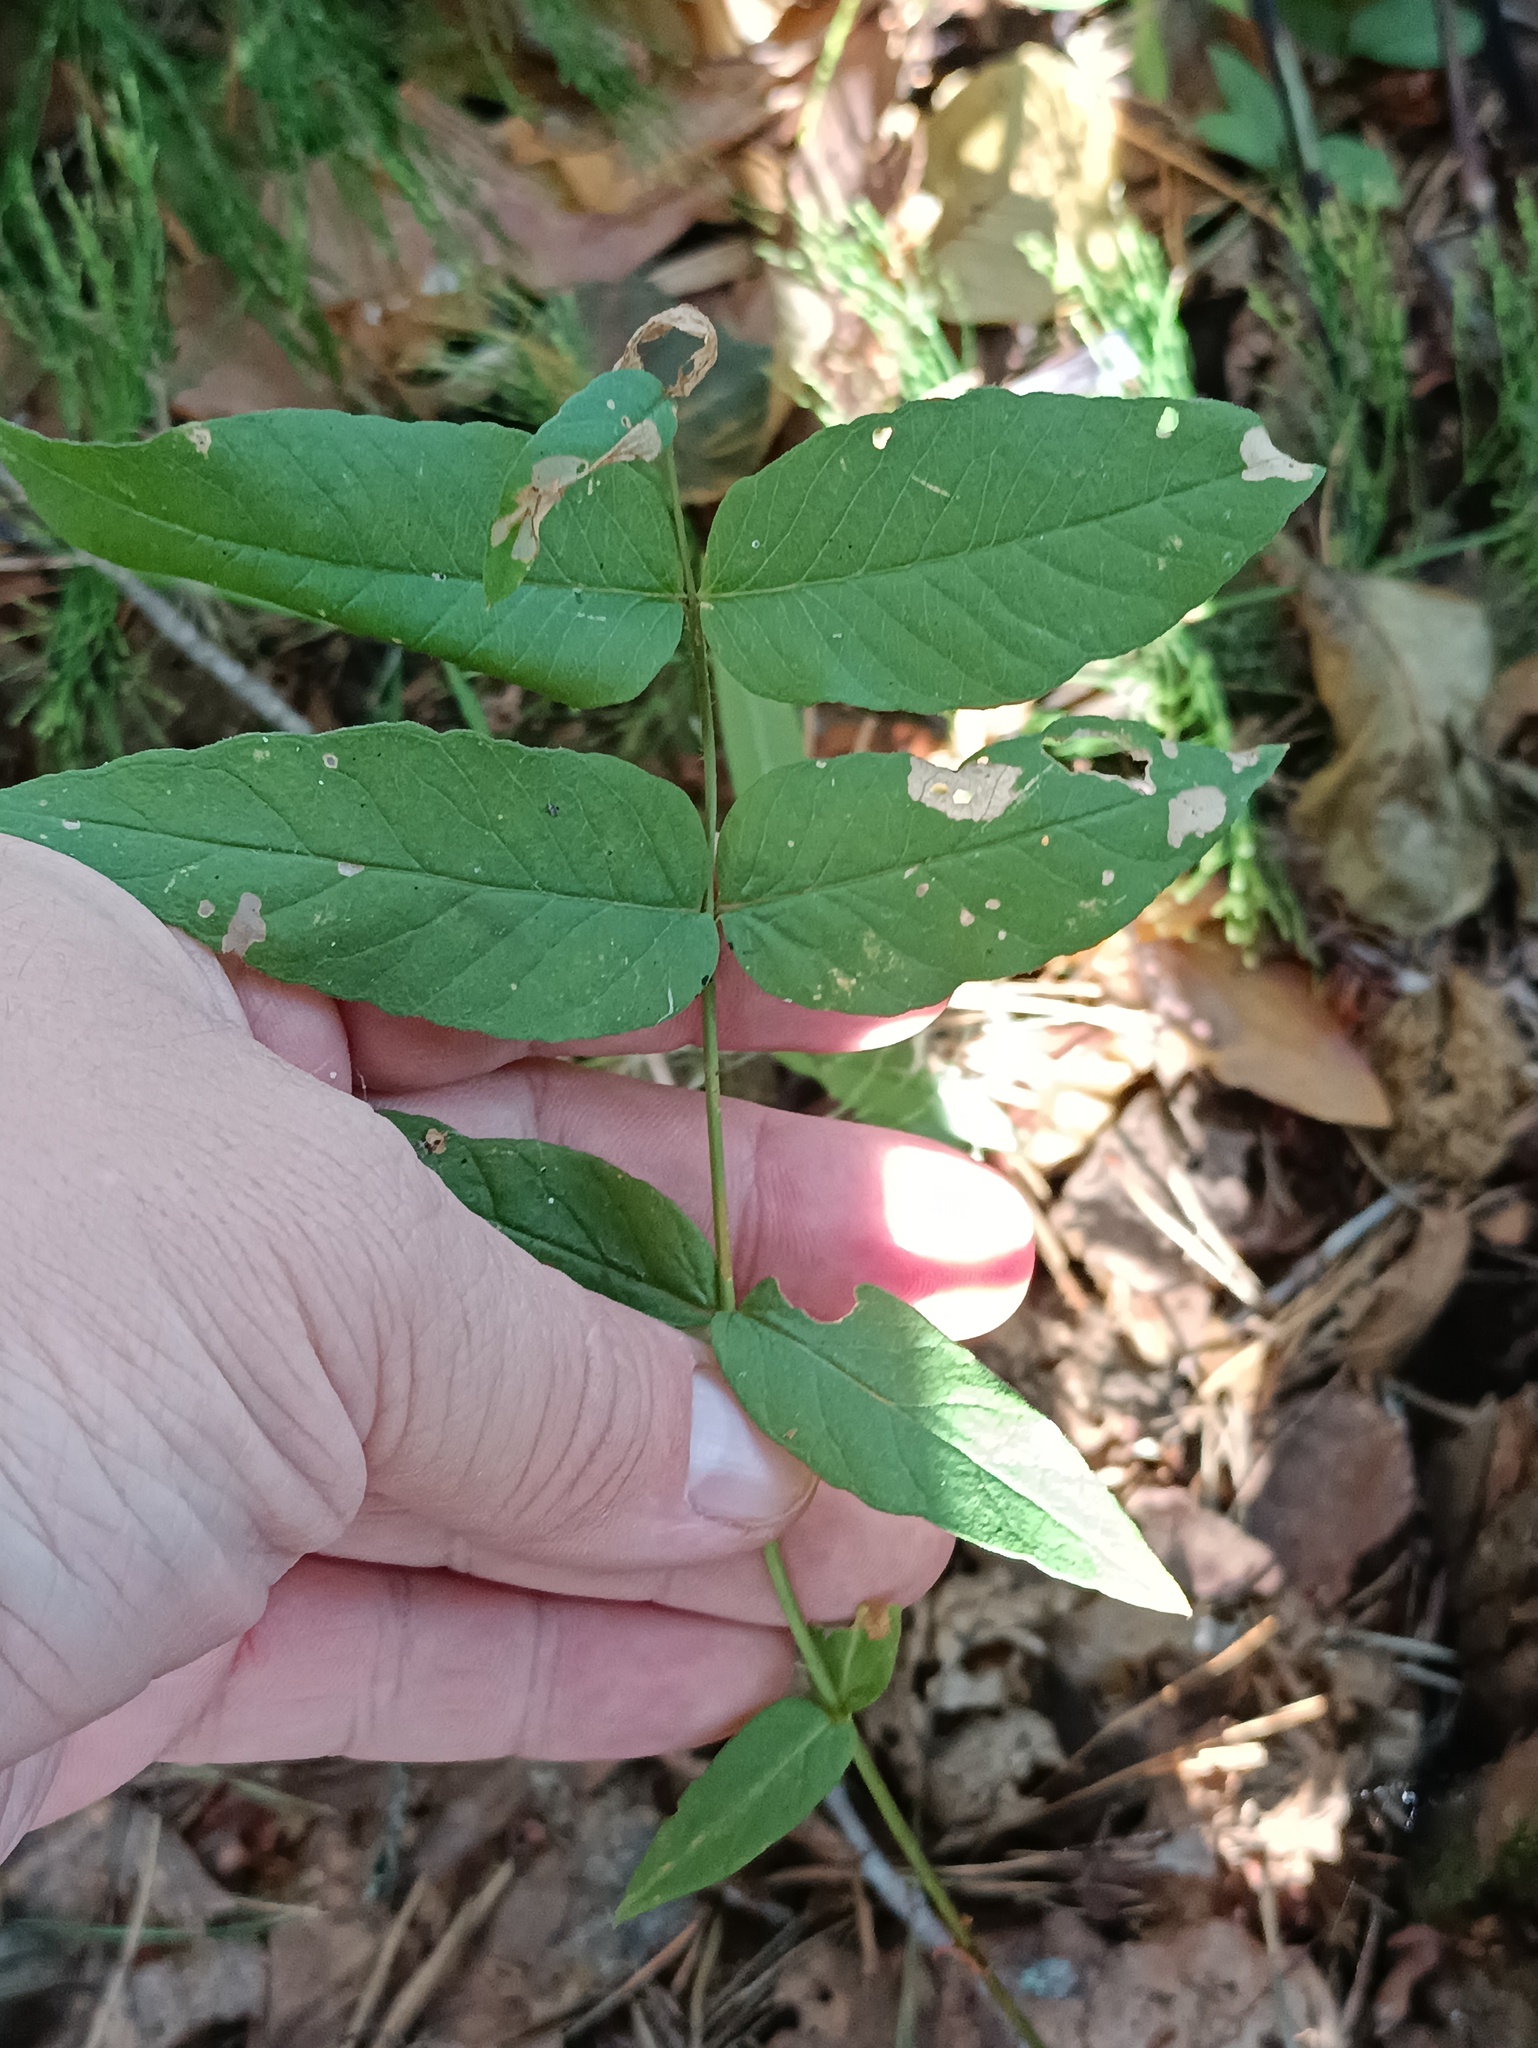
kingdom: Plantae
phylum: Tracheophyta
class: Magnoliopsida
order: Ericales
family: Primulaceae
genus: Lysimachia
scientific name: Lysimachia vulgaris
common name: Yellow loosestrife
